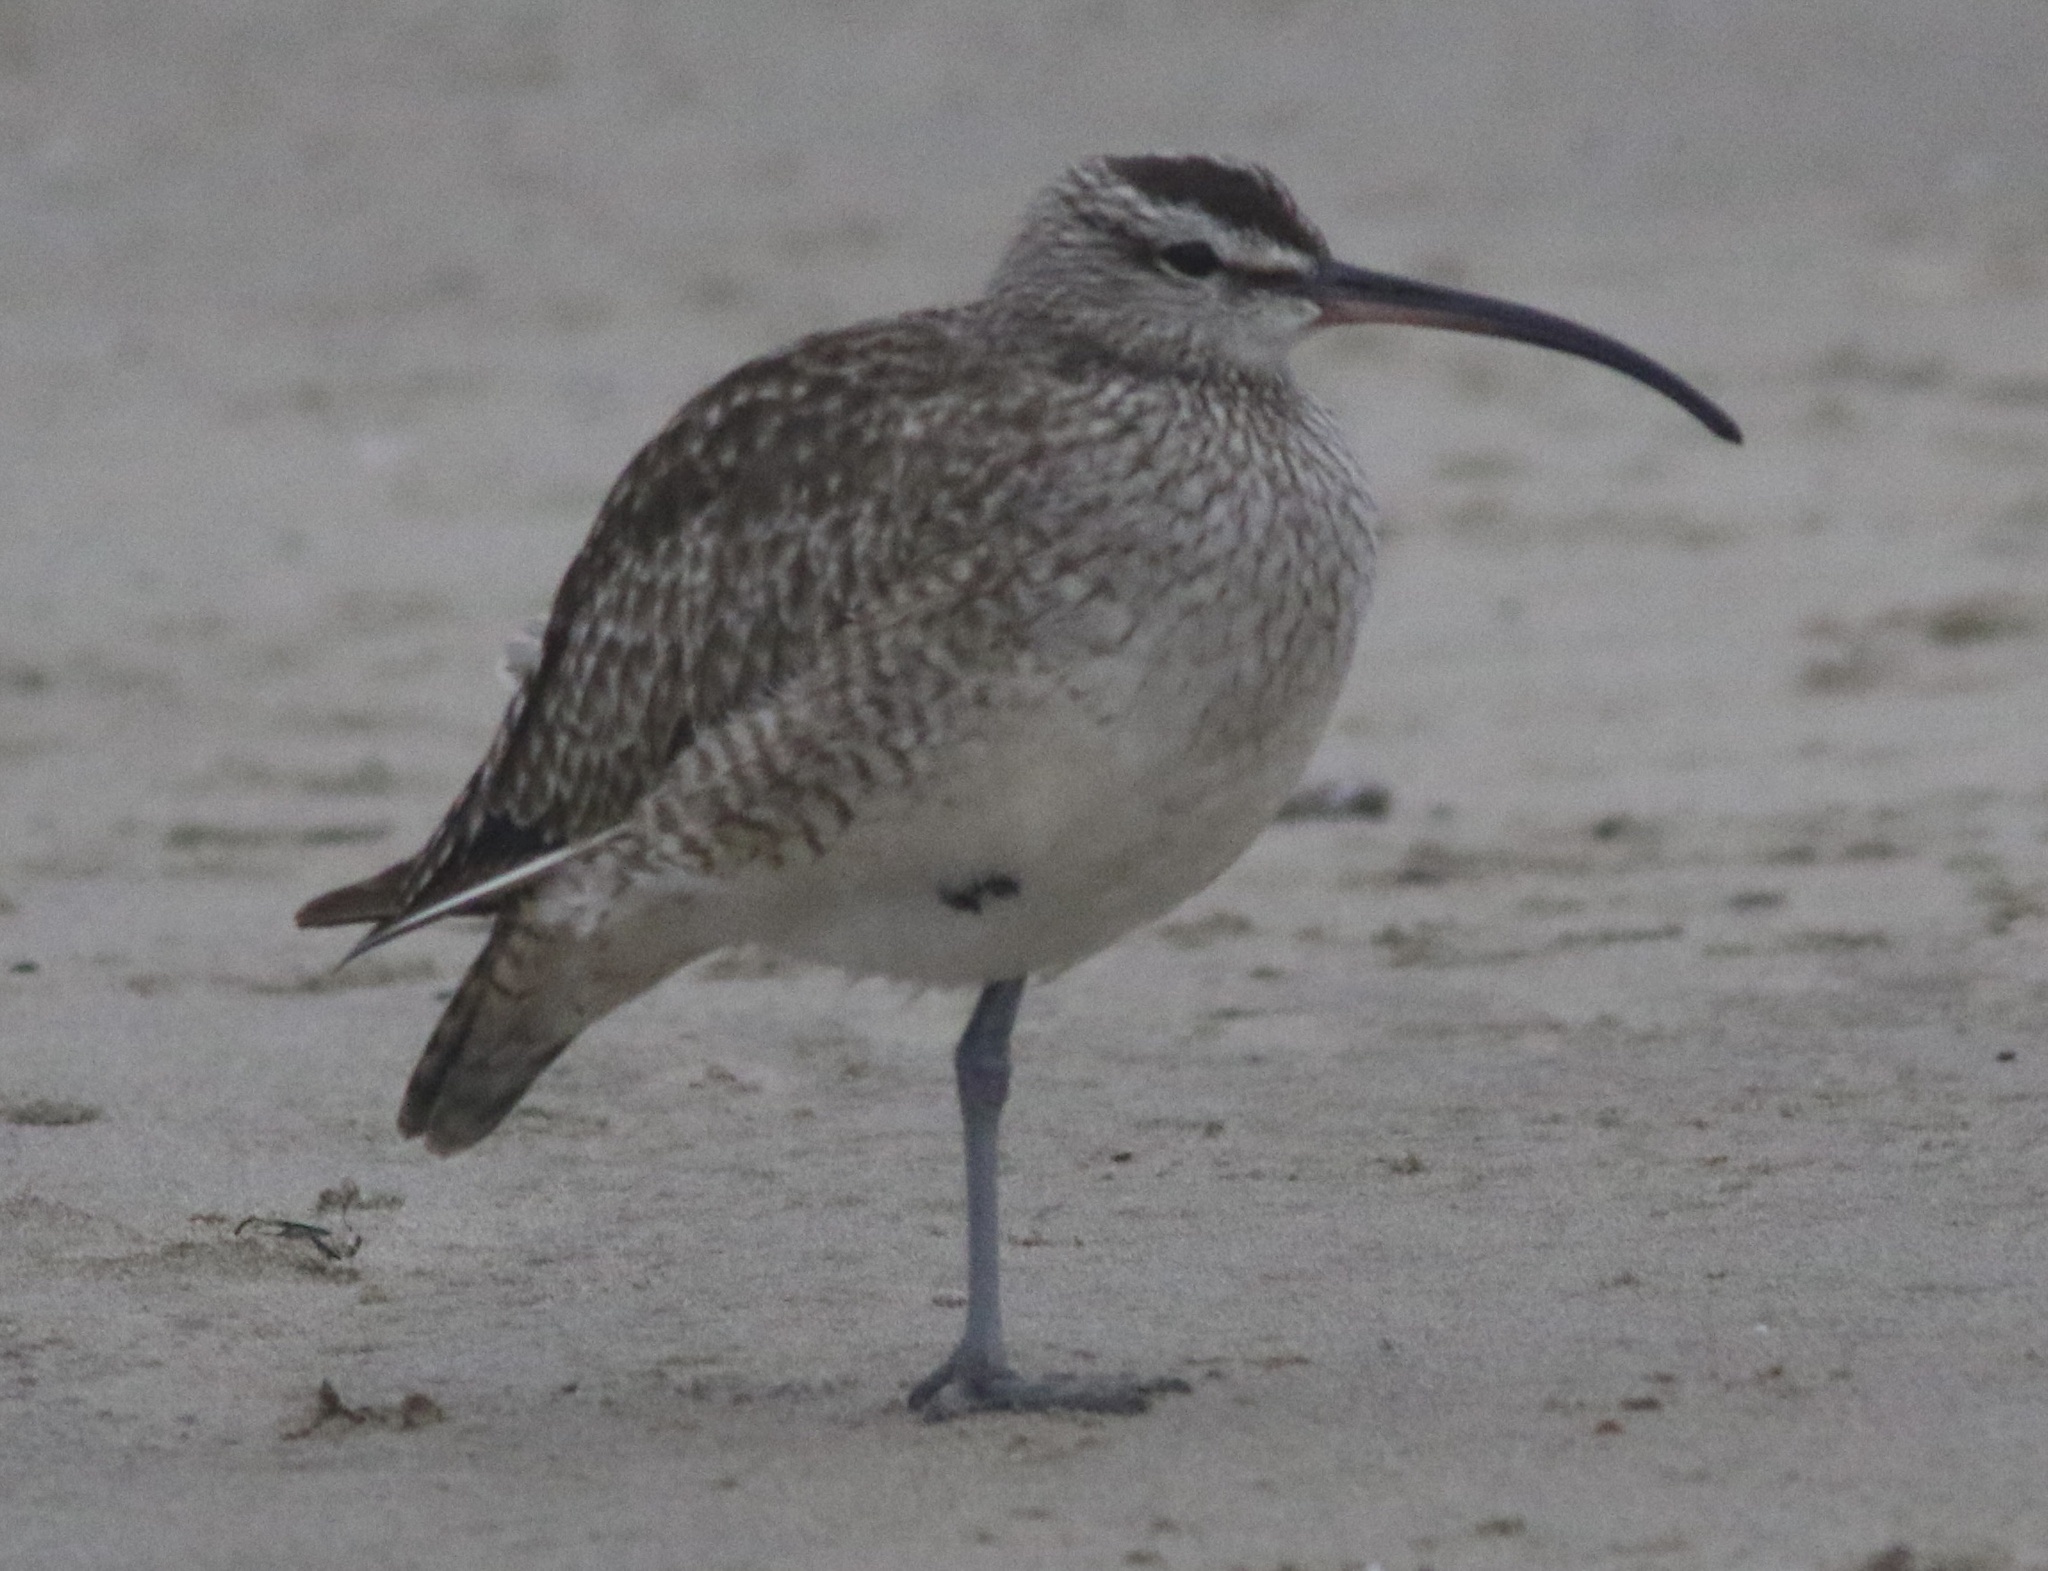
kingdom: Animalia
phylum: Chordata
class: Aves
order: Charadriiformes
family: Scolopacidae
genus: Numenius
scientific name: Numenius phaeopus
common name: Whimbrel
